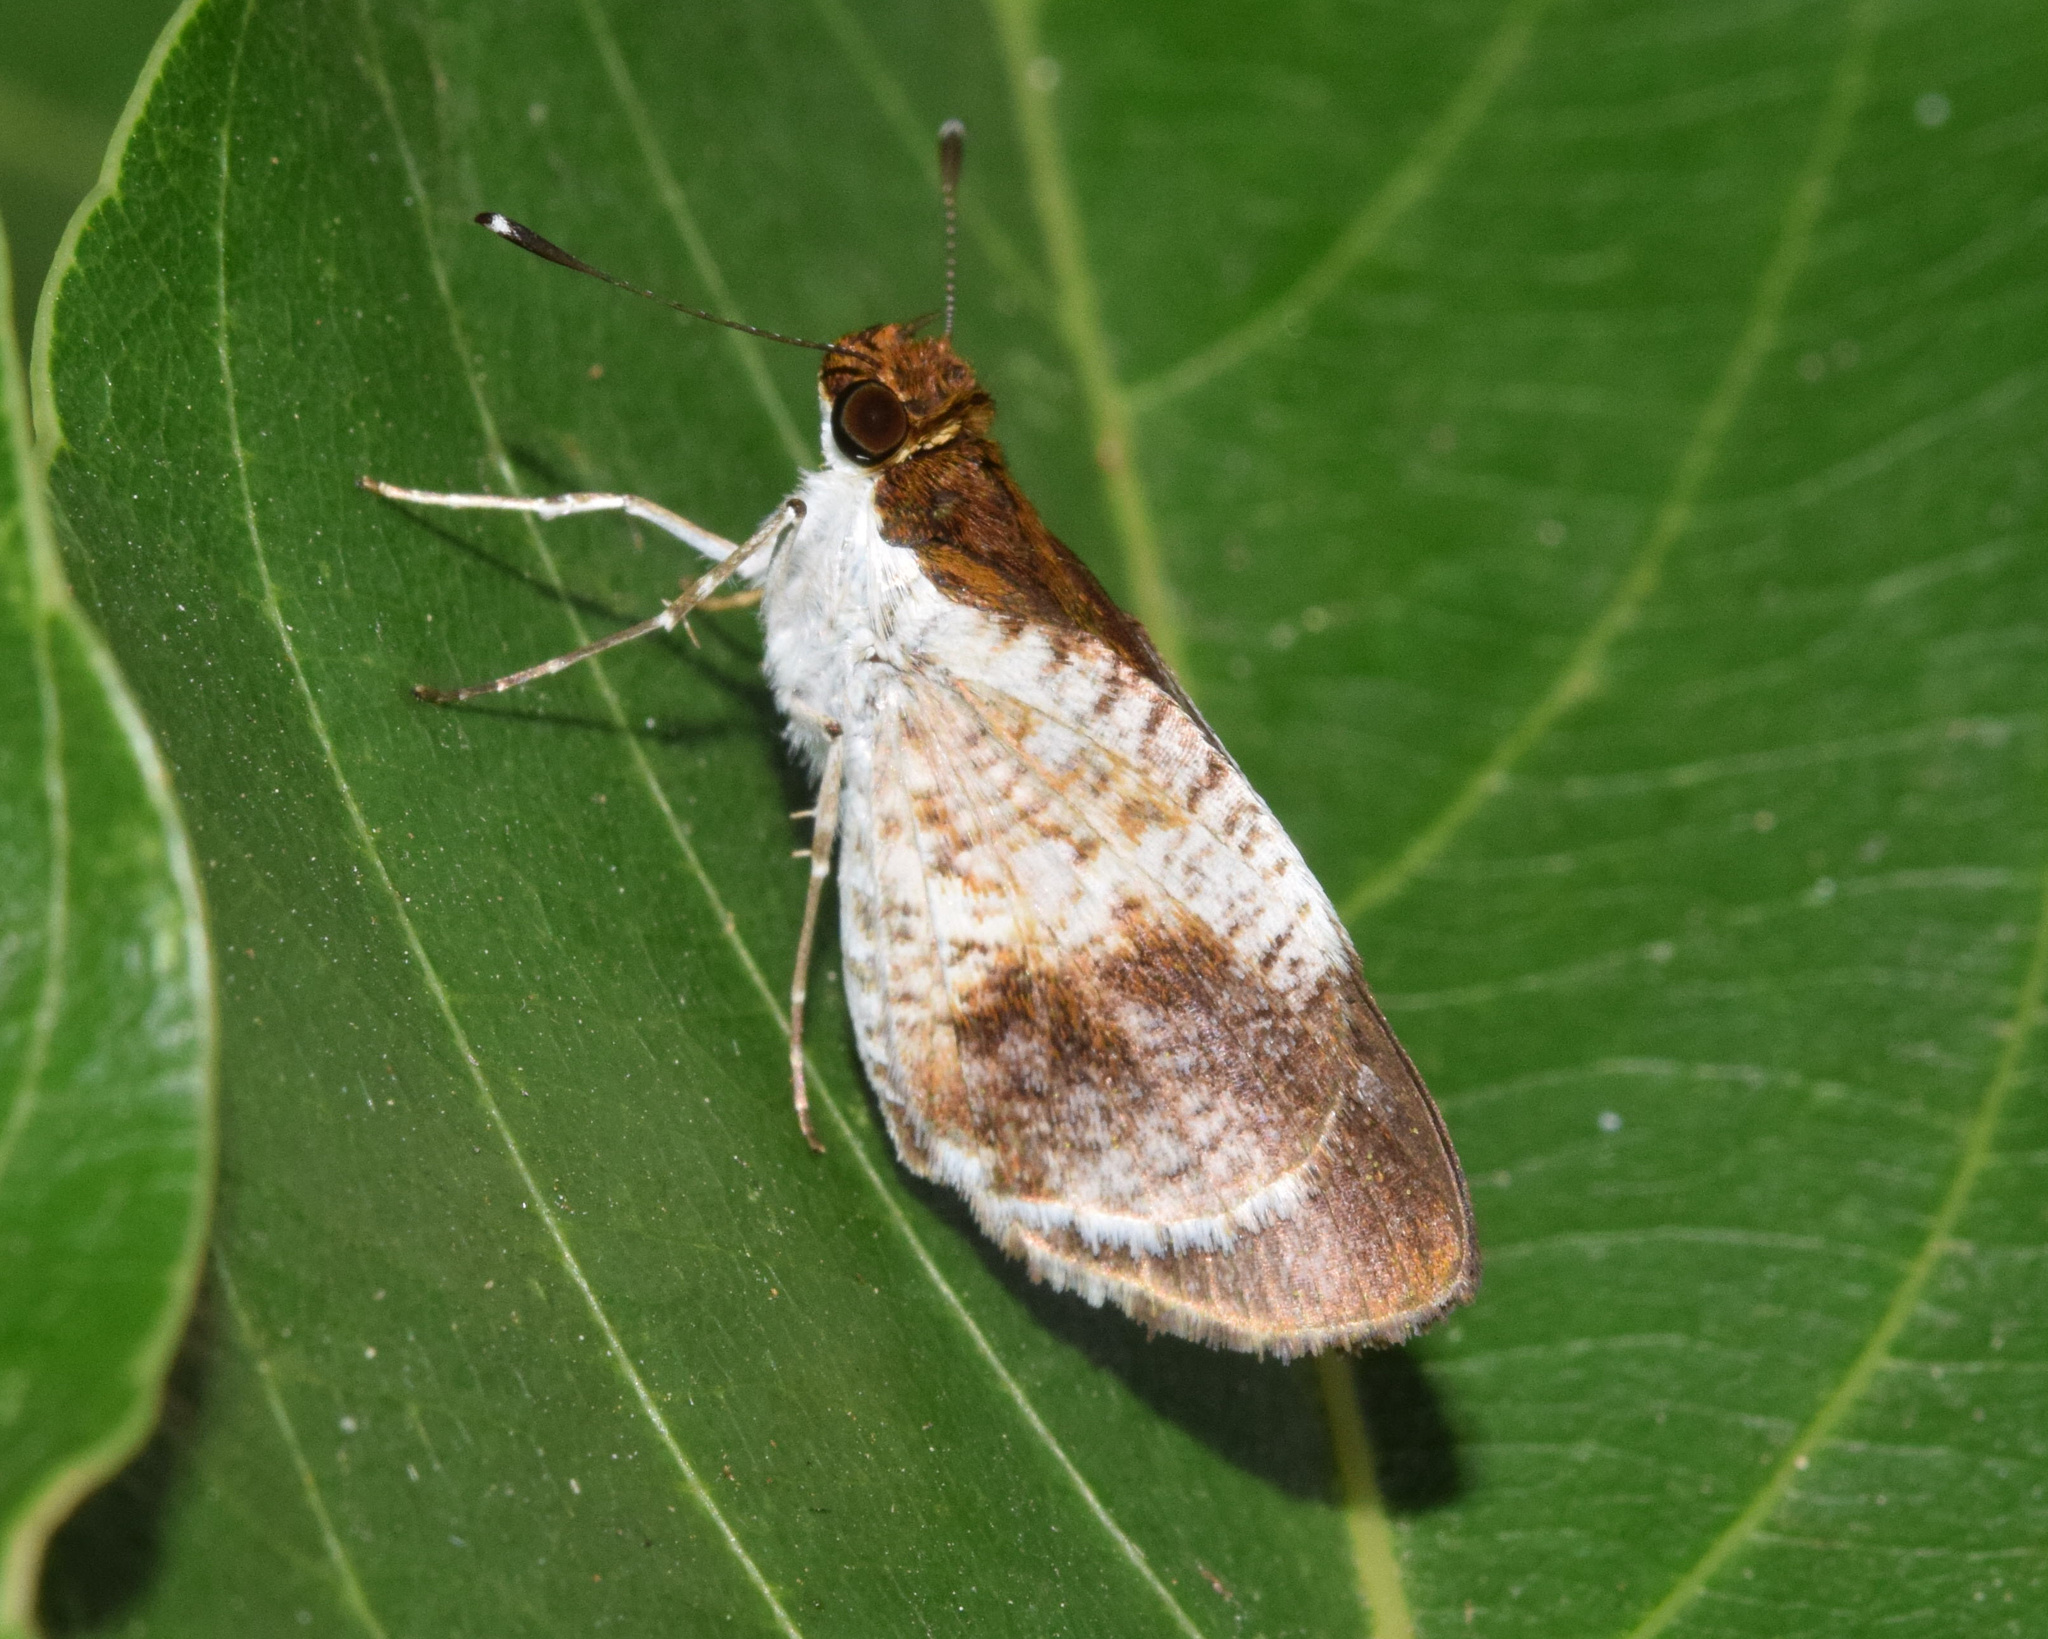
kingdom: Animalia
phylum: Arthropoda
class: Insecta
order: Lepidoptera
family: Hesperiidae
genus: Acleros
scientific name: Acleros mackenii
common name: Shade dart
